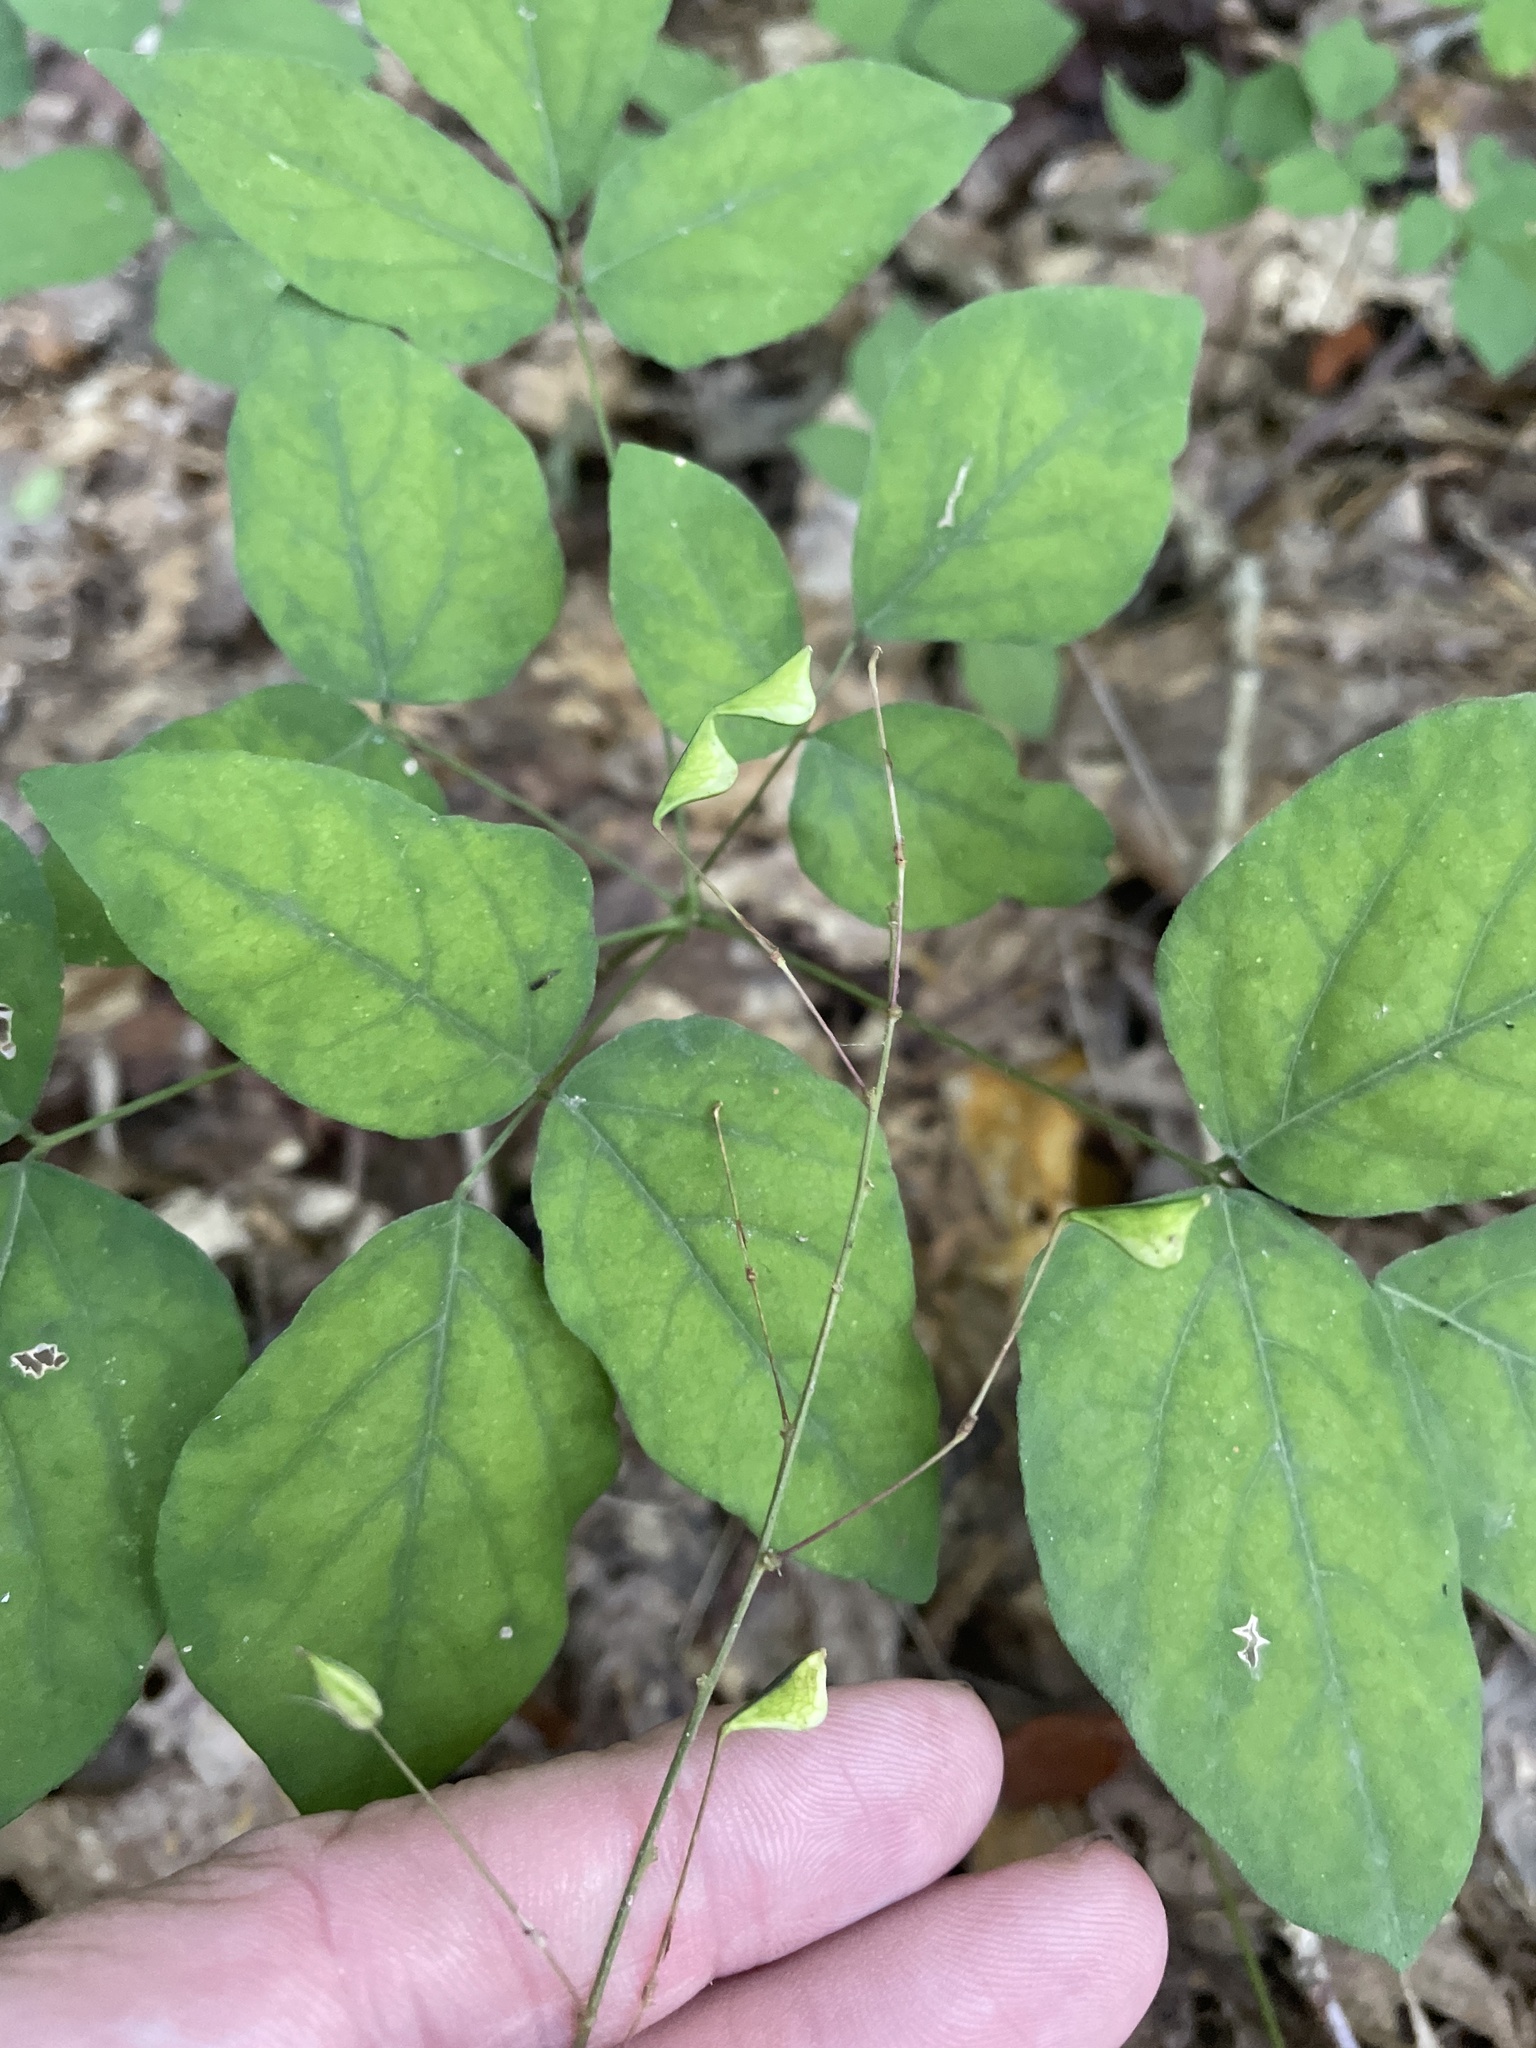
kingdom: Plantae
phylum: Tracheophyta
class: Magnoliopsida
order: Fabales
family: Fabaceae
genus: Hylodesmum
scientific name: Hylodesmum nudiflorum
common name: Bare-stemmed tick-trefoil
